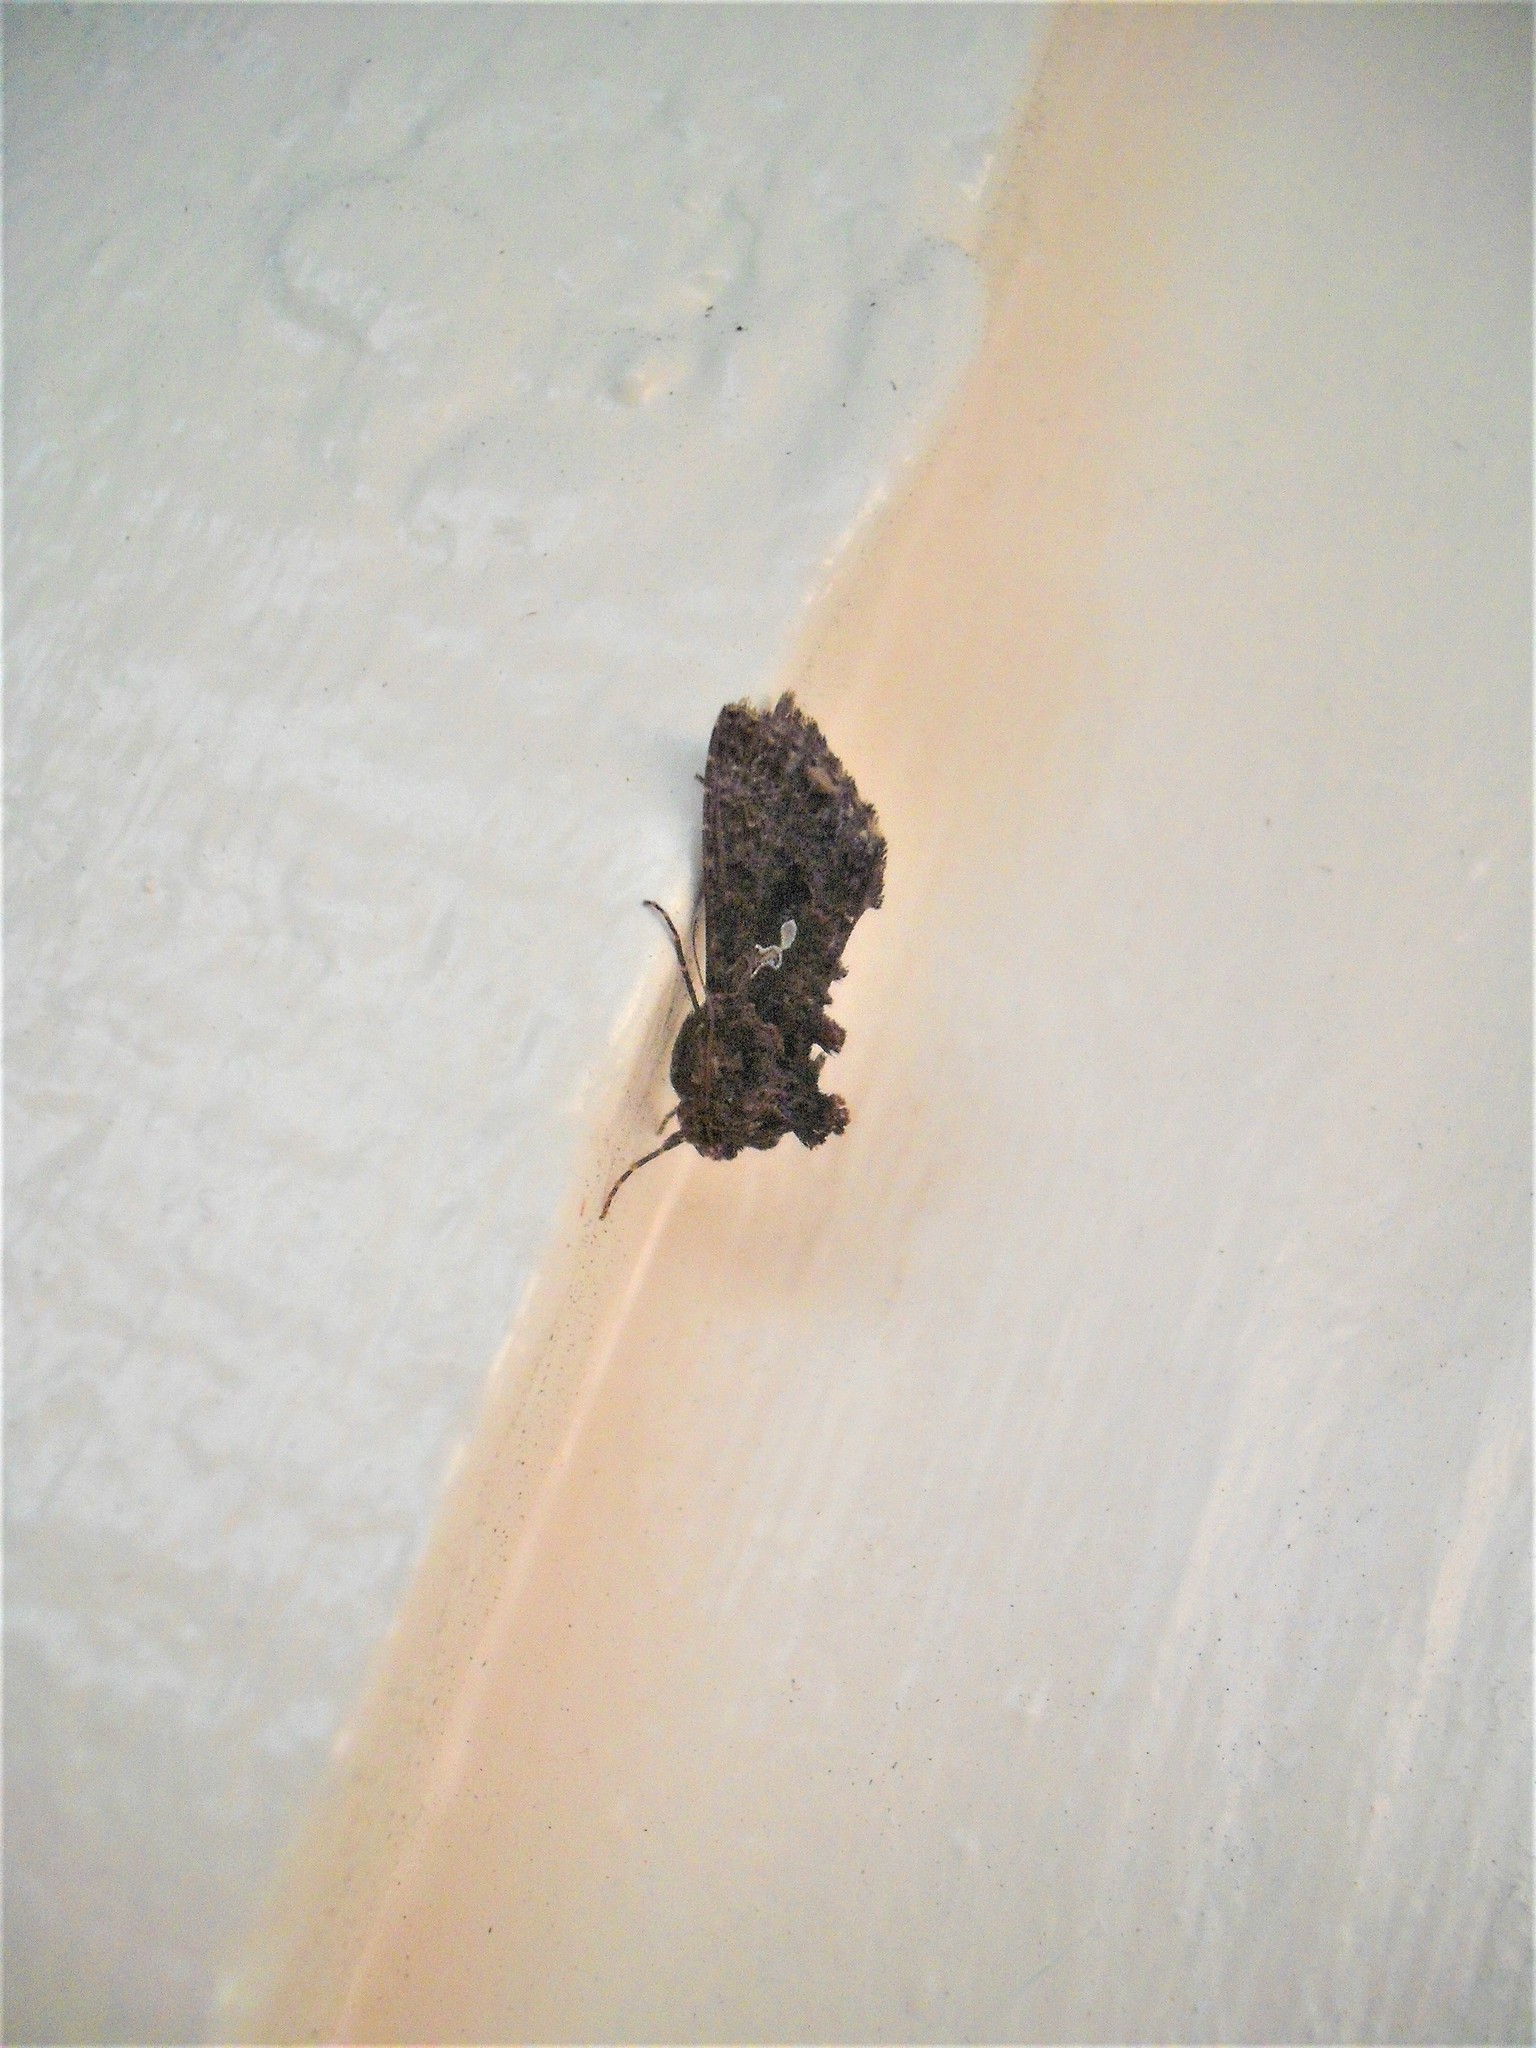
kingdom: Animalia
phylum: Arthropoda
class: Insecta
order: Lepidoptera
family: Noctuidae
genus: Ctenoplusia
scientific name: Ctenoplusia limbirena
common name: Scar bank gem
